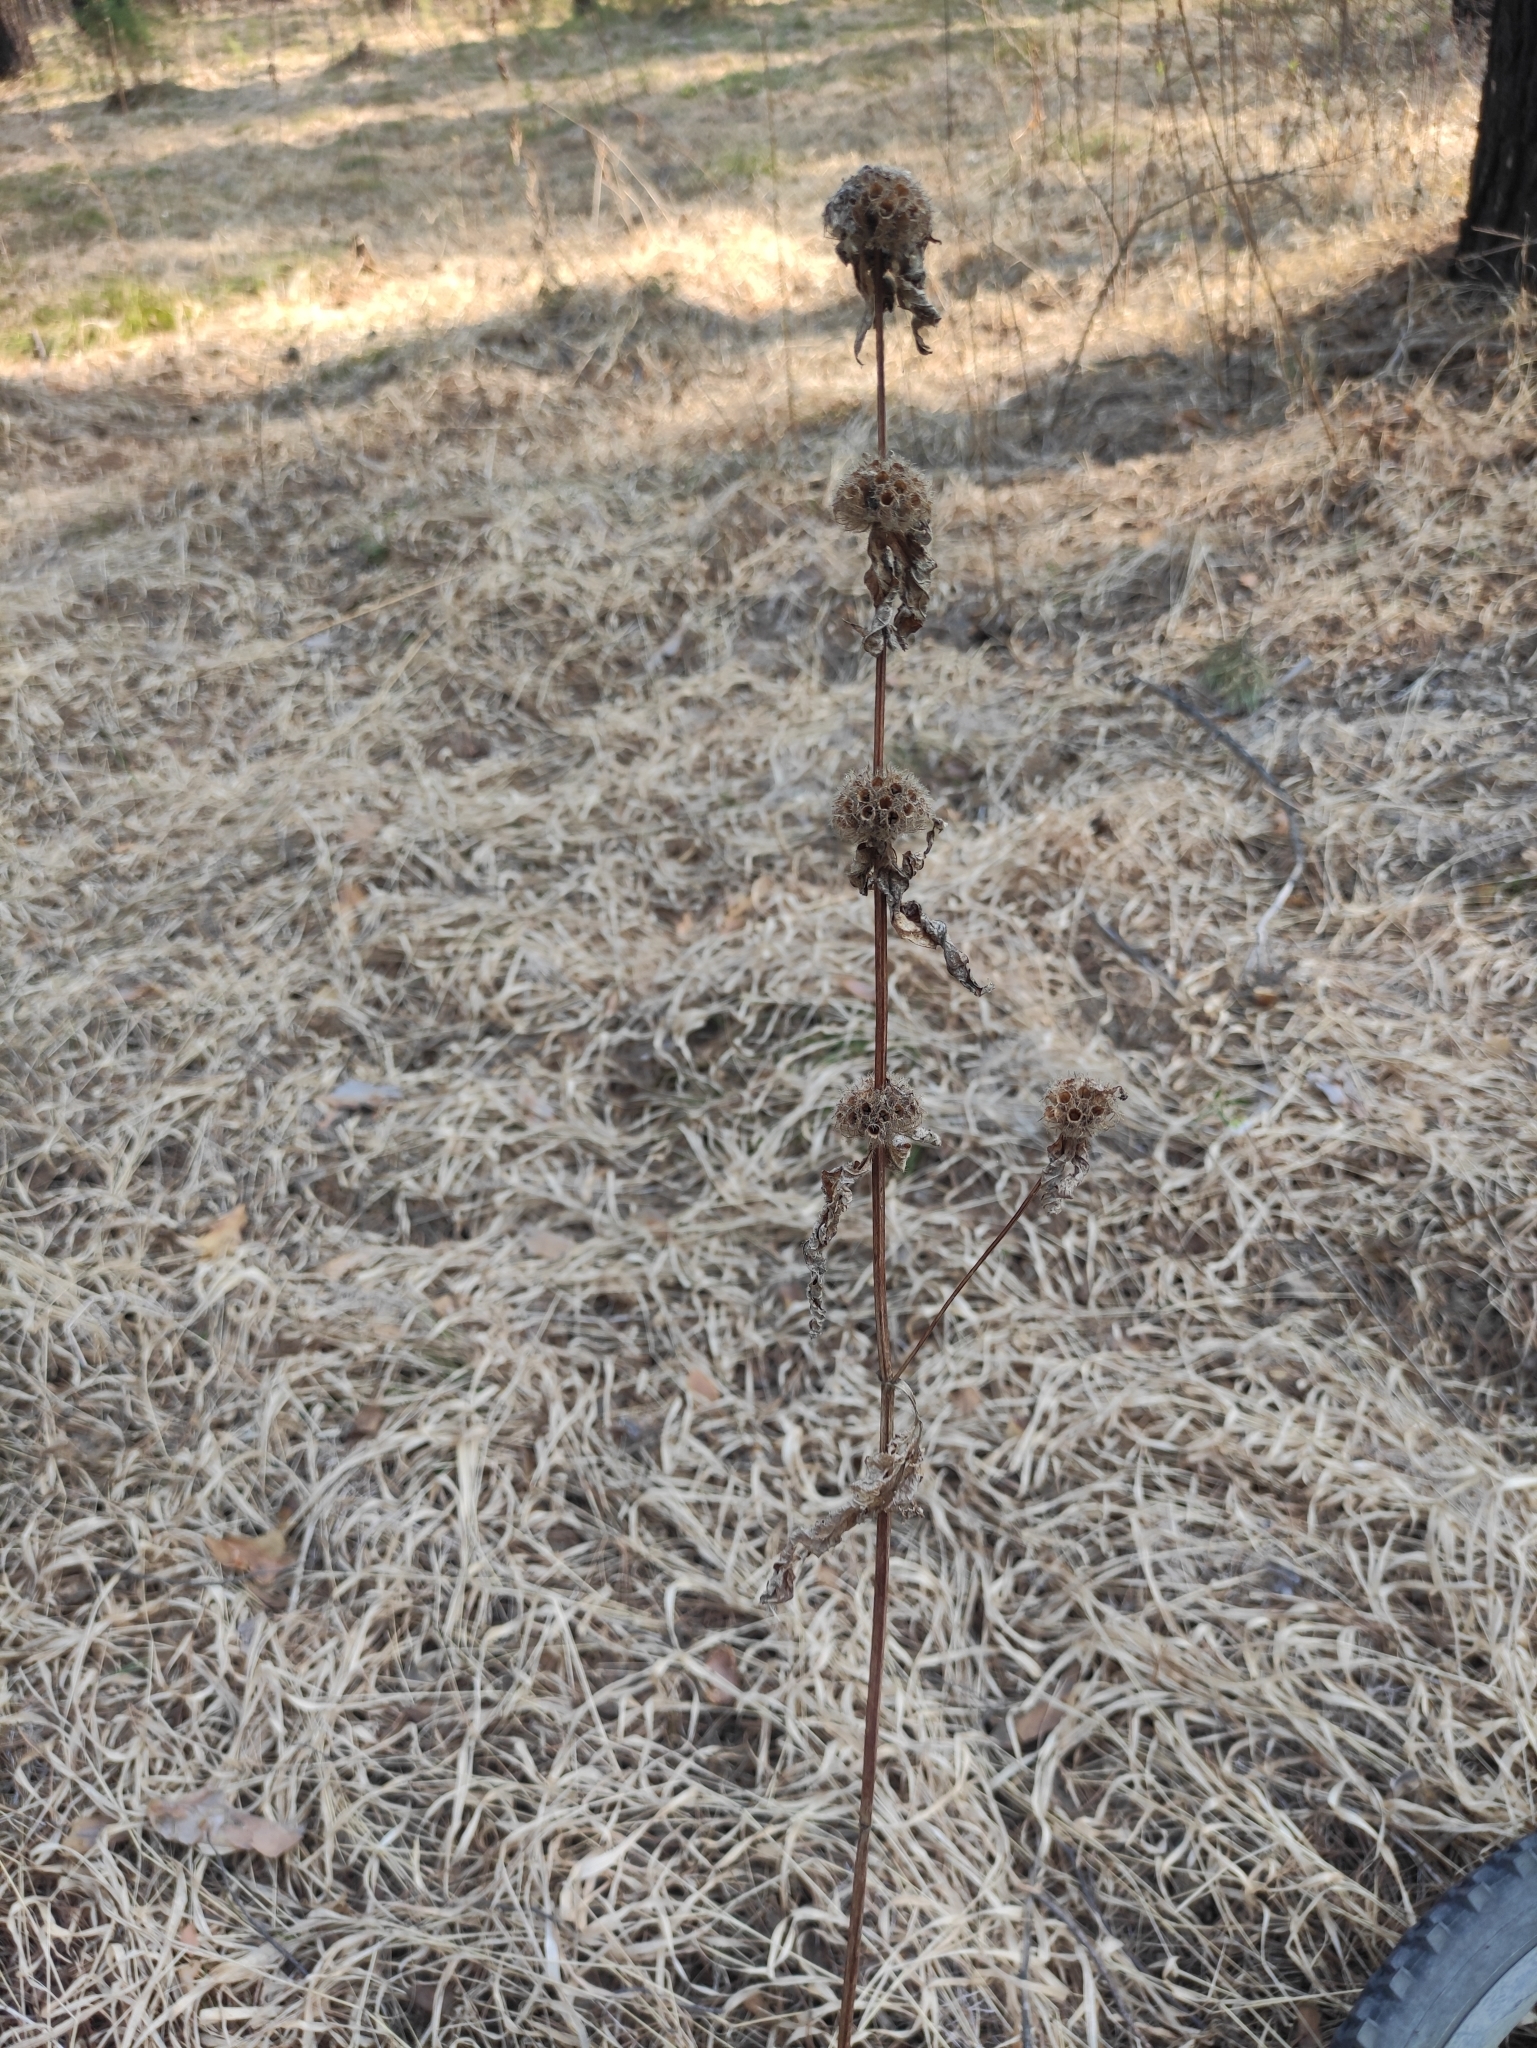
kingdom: Plantae
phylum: Tracheophyta
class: Magnoliopsida
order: Lamiales
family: Lamiaceae
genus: Phlomoides
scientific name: Phlomoides tuberosa
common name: Tuberous jerusalem sage
